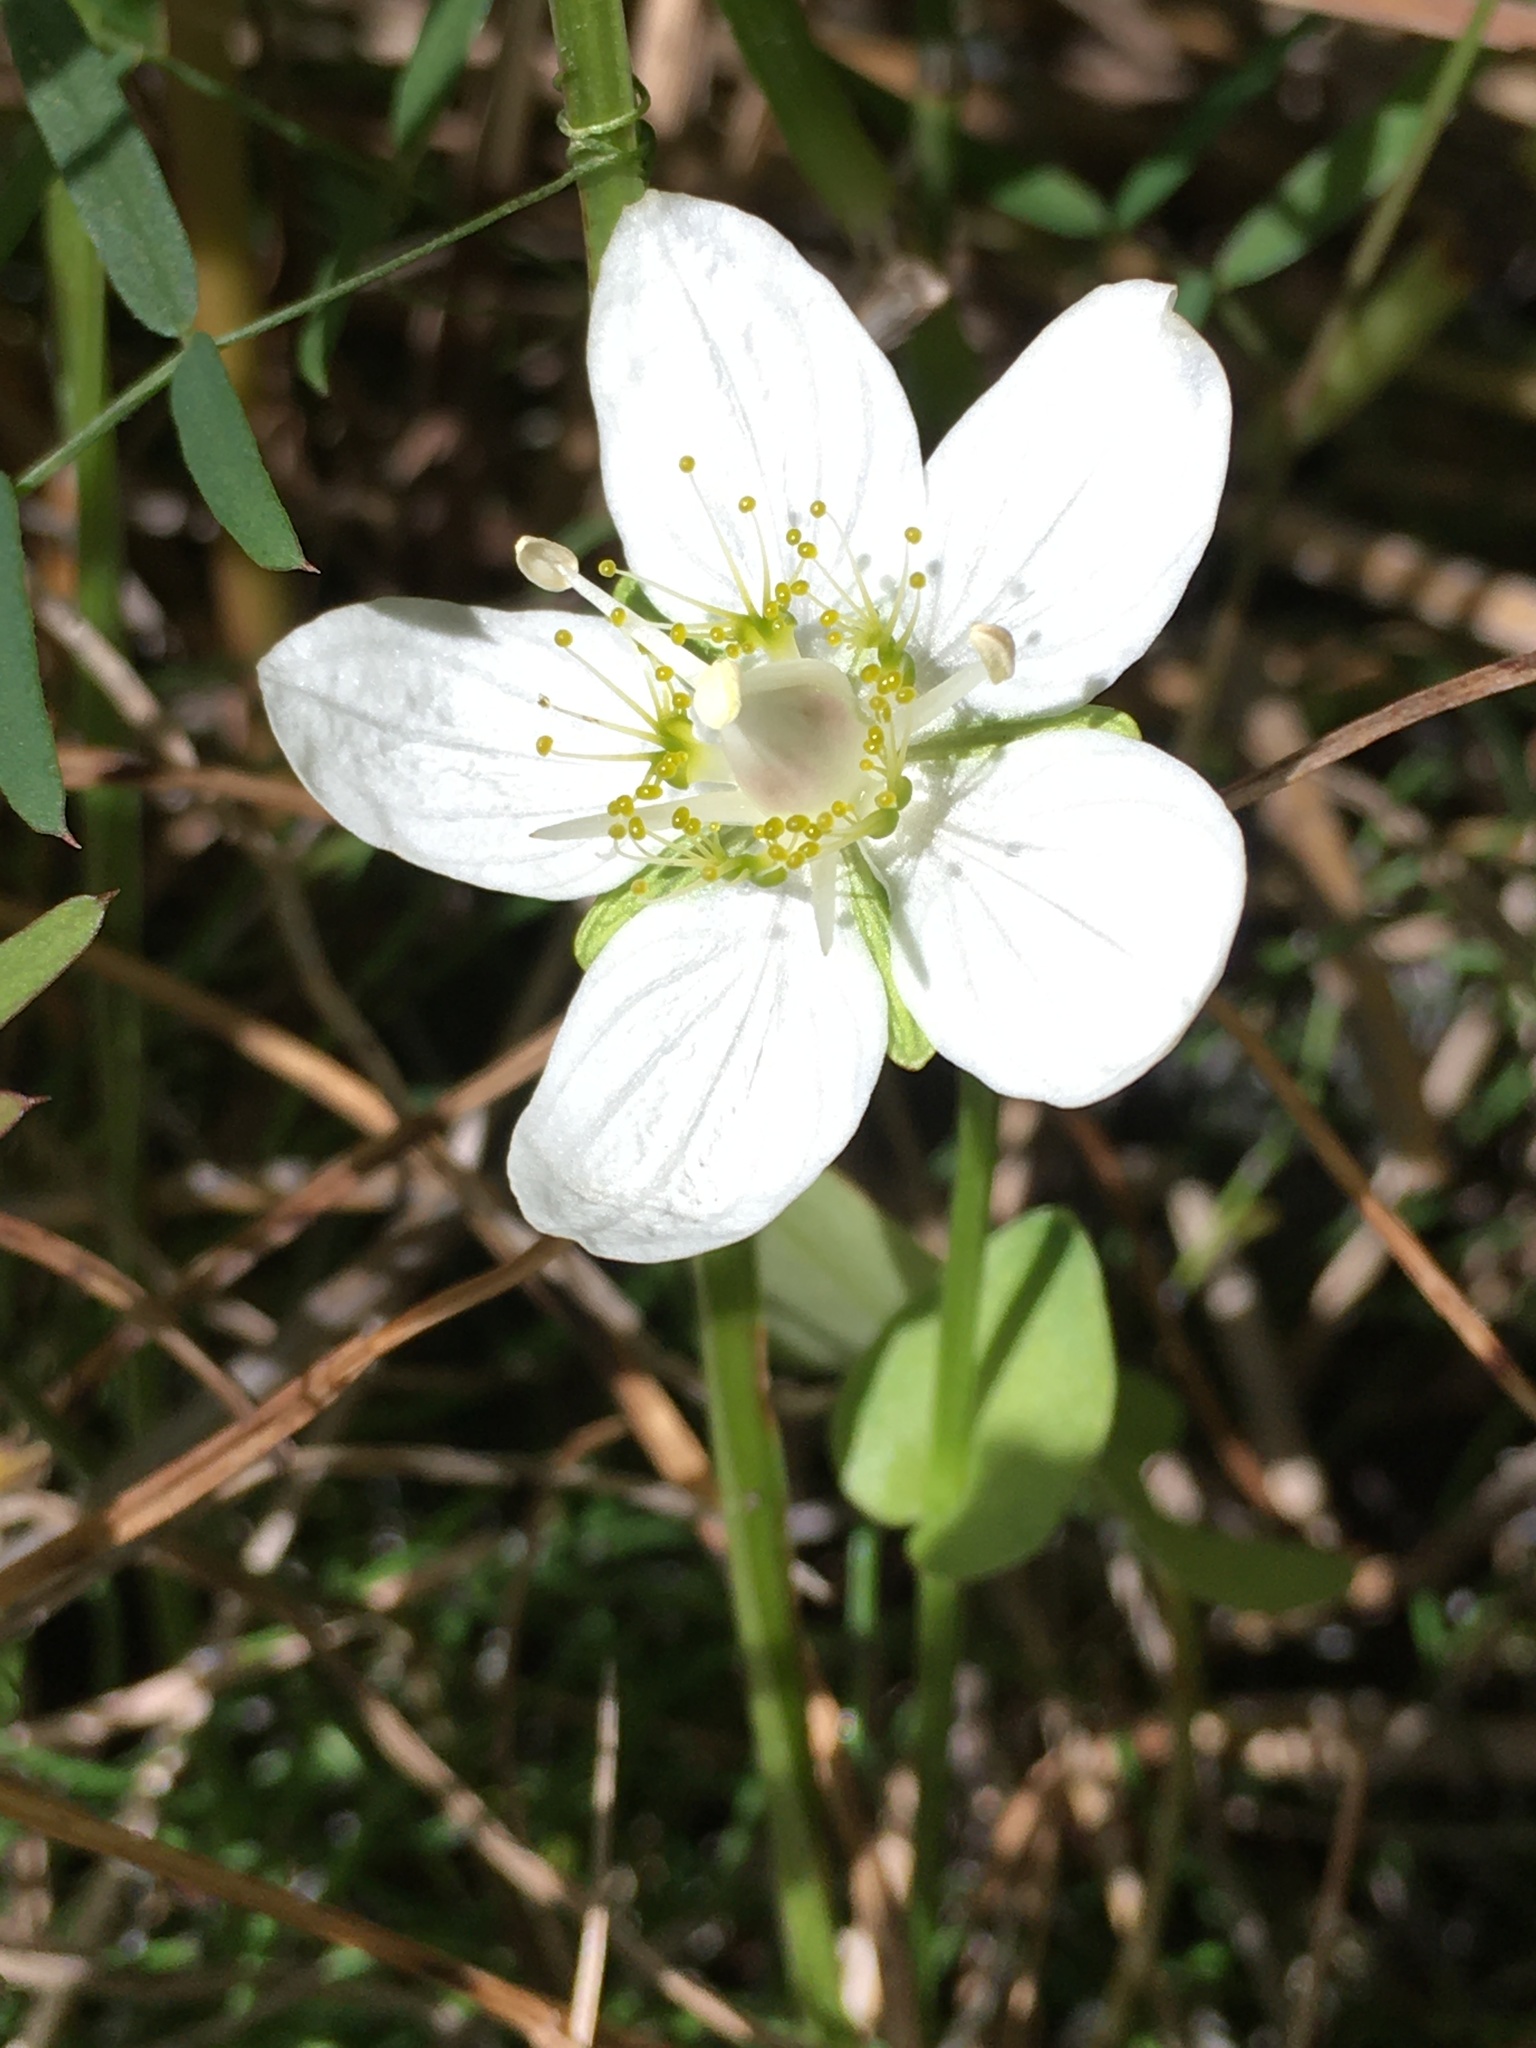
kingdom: Plantae
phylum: Tracheophyta
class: Magnoliopsida
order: Celastrales
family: Parnassiaceae
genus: Parnassia
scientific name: Parnassia palustris
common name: Grass-of-parnassus
